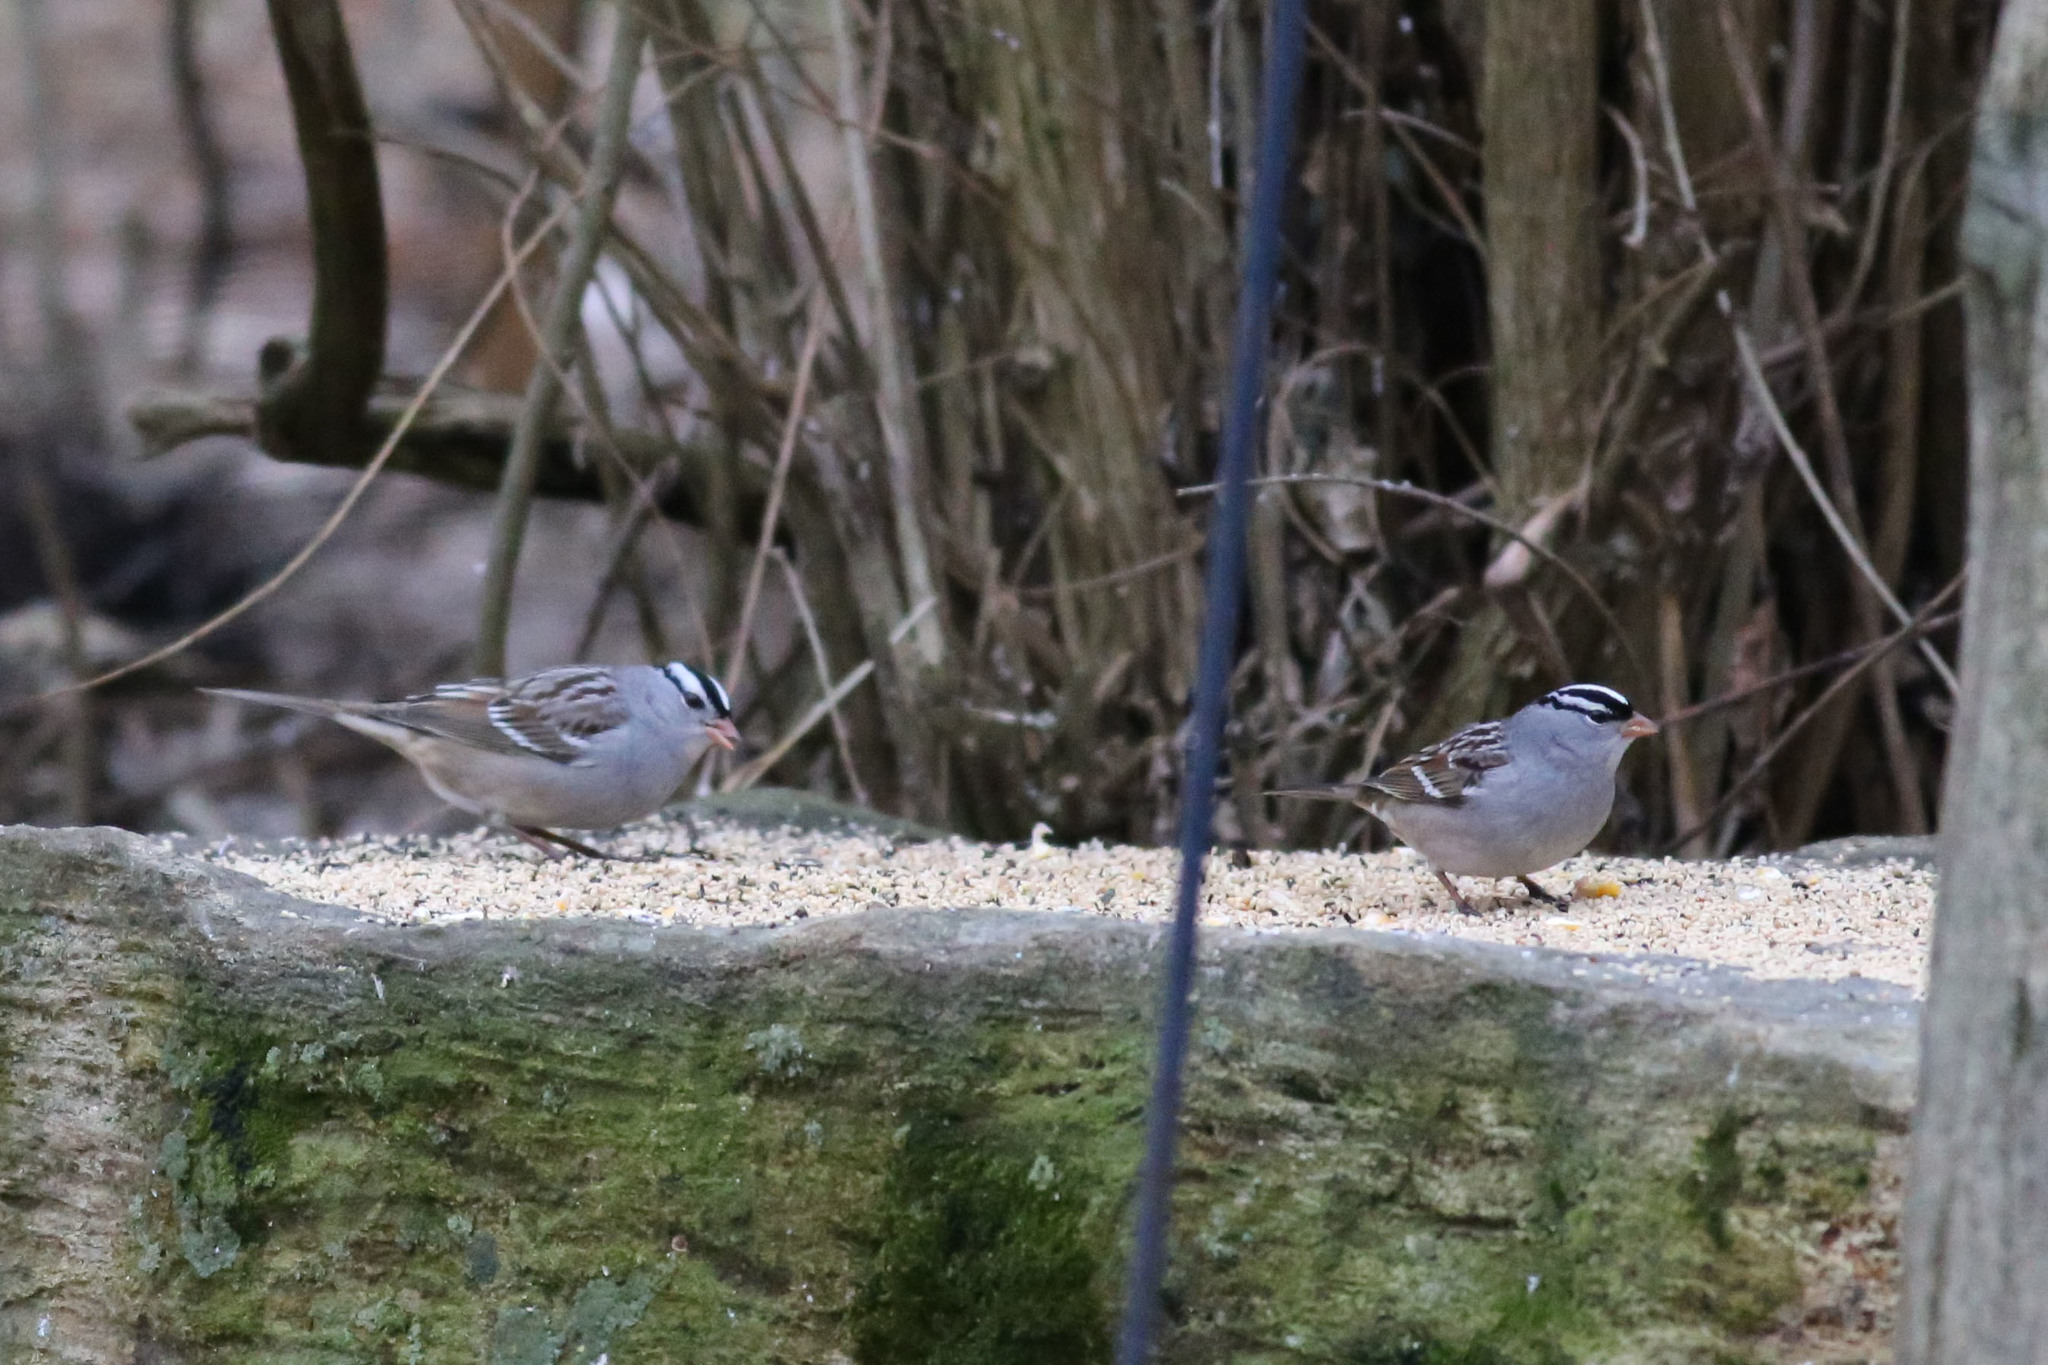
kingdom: Animalia
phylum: Chordata
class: Aves
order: Passeriformes
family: Passerellidae
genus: Zonotrichia
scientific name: Zonotrichia leucophrys
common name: White-crowned sparrow
